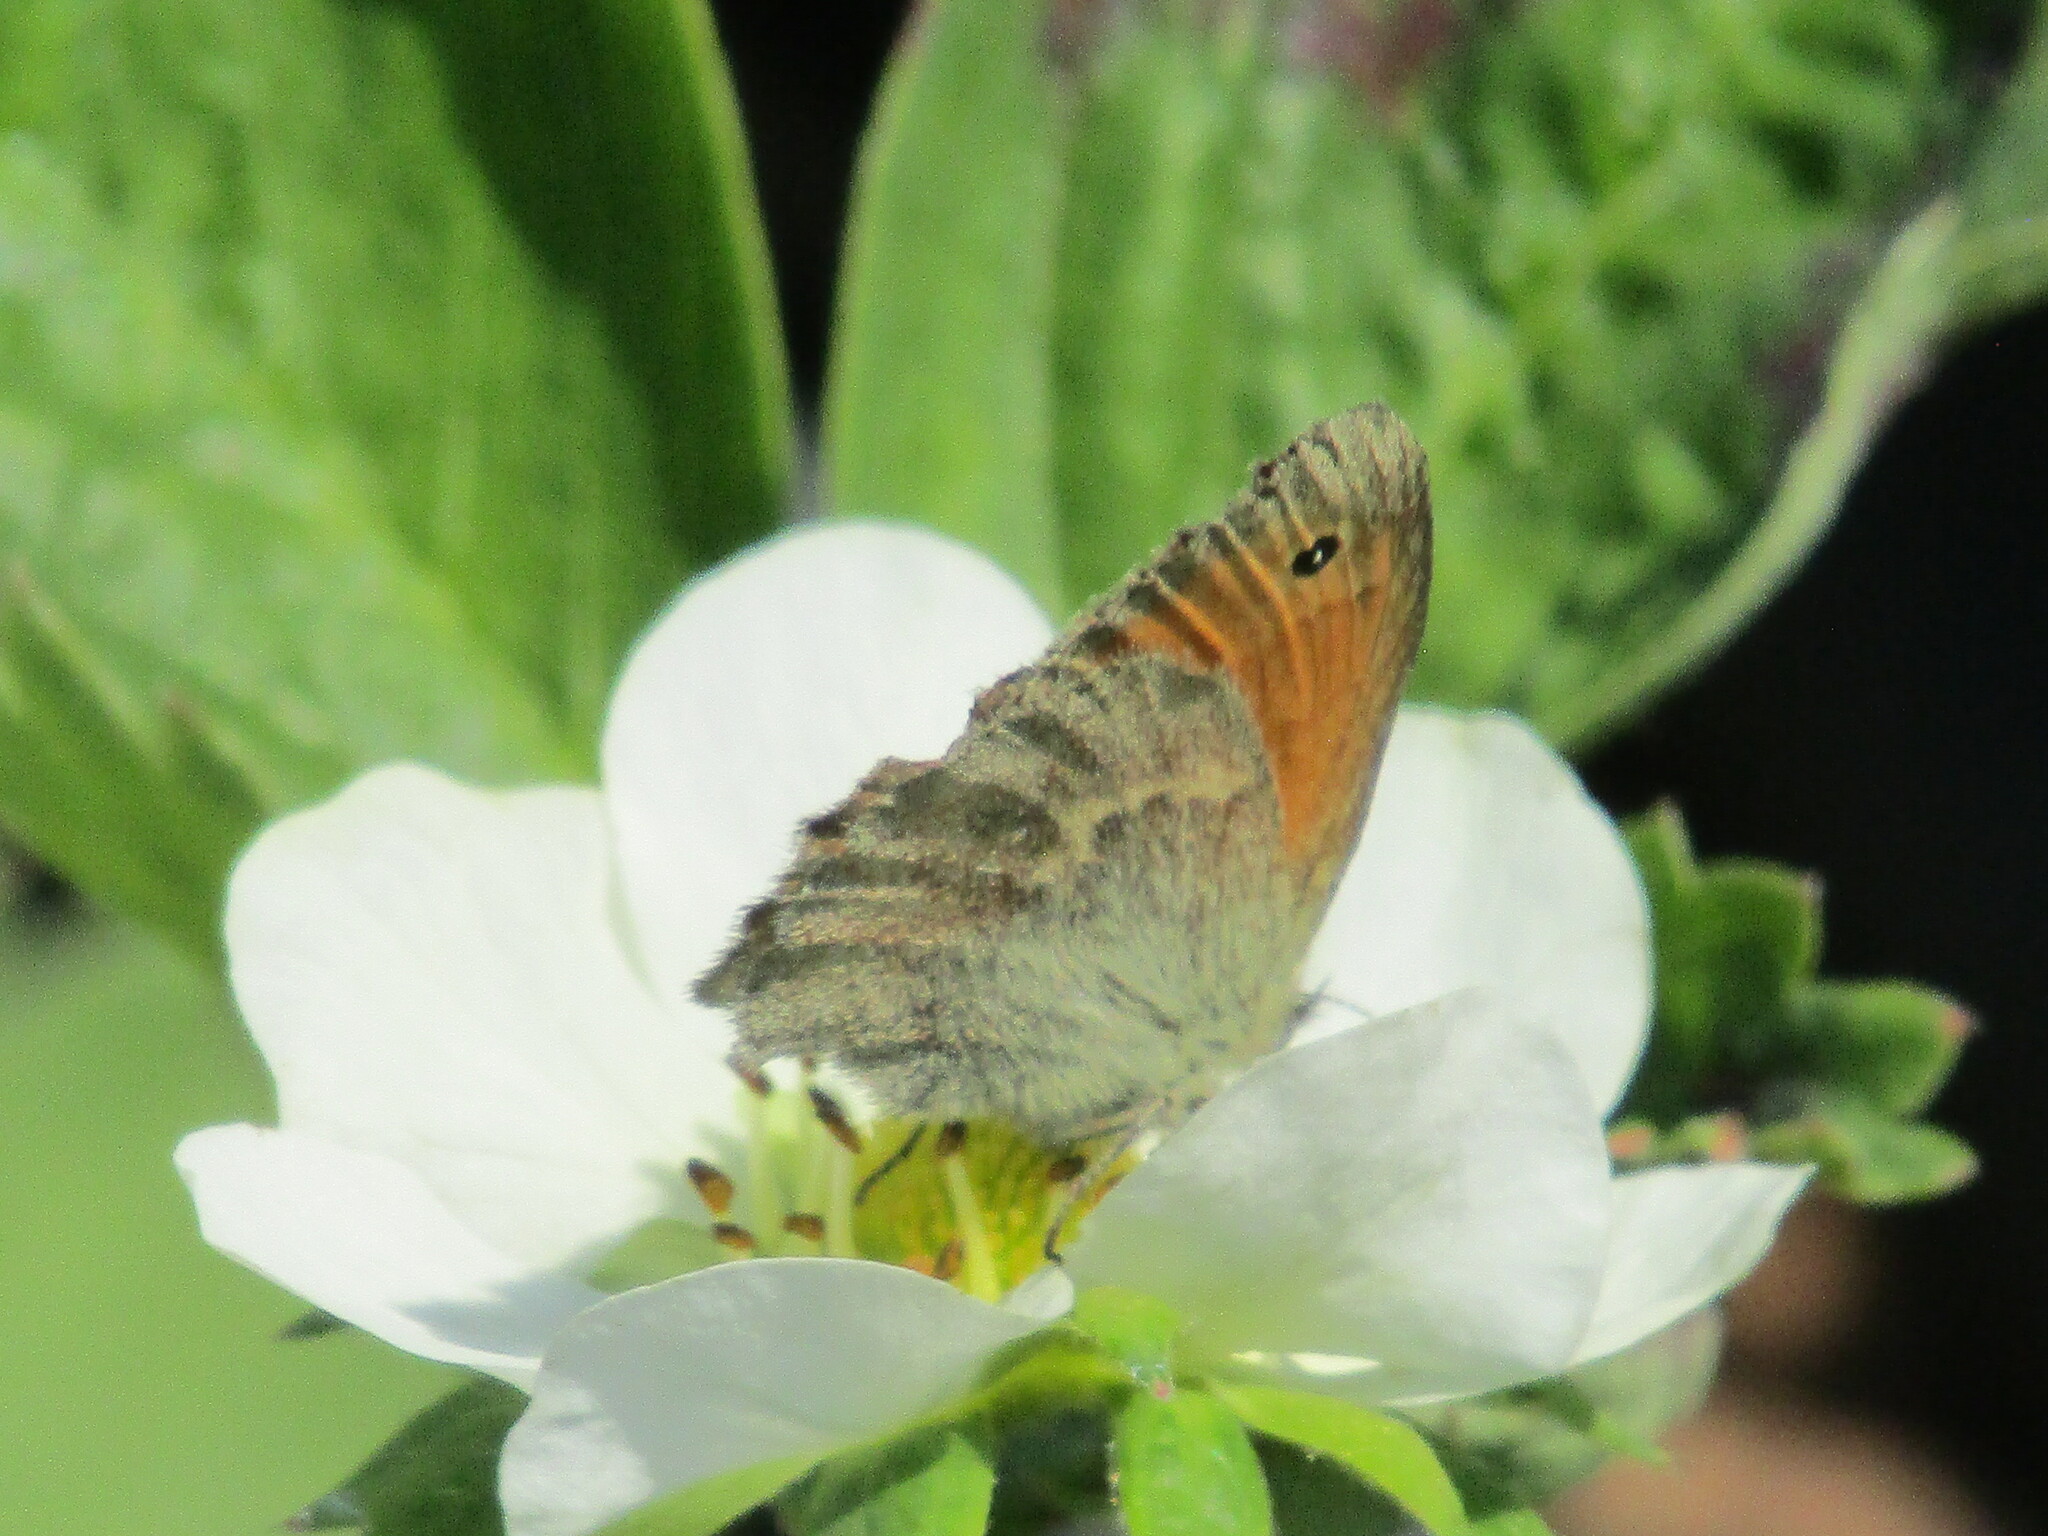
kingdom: Animalia
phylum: Arthropoda
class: Insecta
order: Lepidoptera
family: Nymphalidae
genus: Coenonympha
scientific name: Coenonympha pamphilus
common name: Small heath
